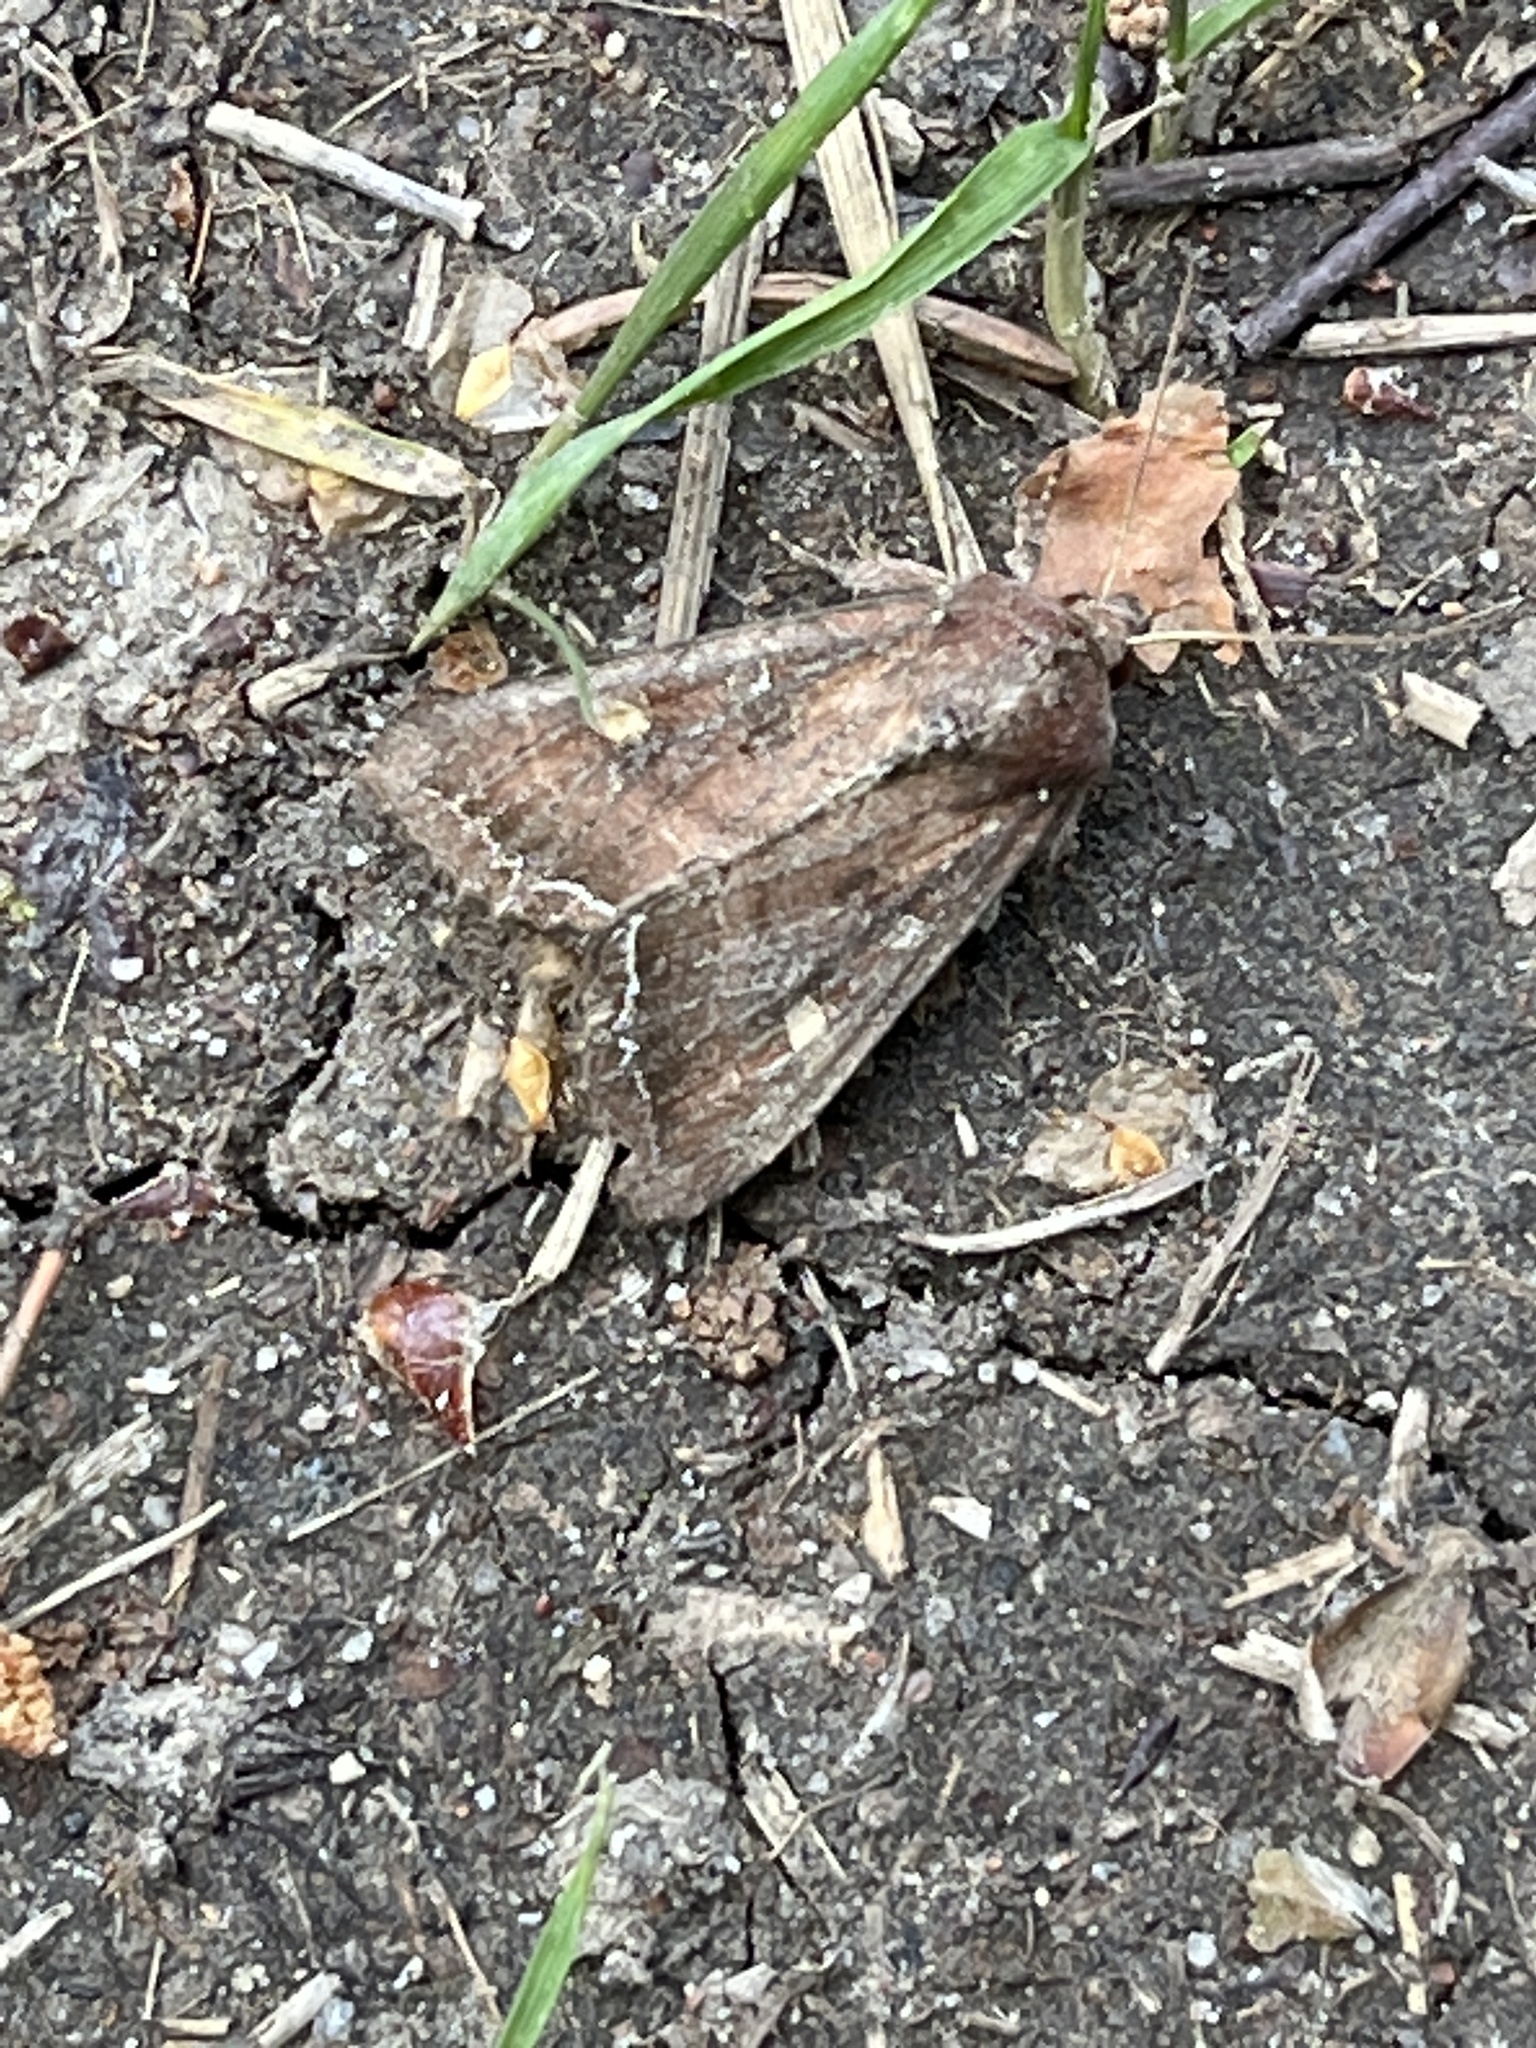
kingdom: Animalia
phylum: Arthropoda
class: Insecta
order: Lepidoptera
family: Noctuidae
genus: Lacanobia
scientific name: Lacanobia oleracea
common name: Bright-line brown-eye
